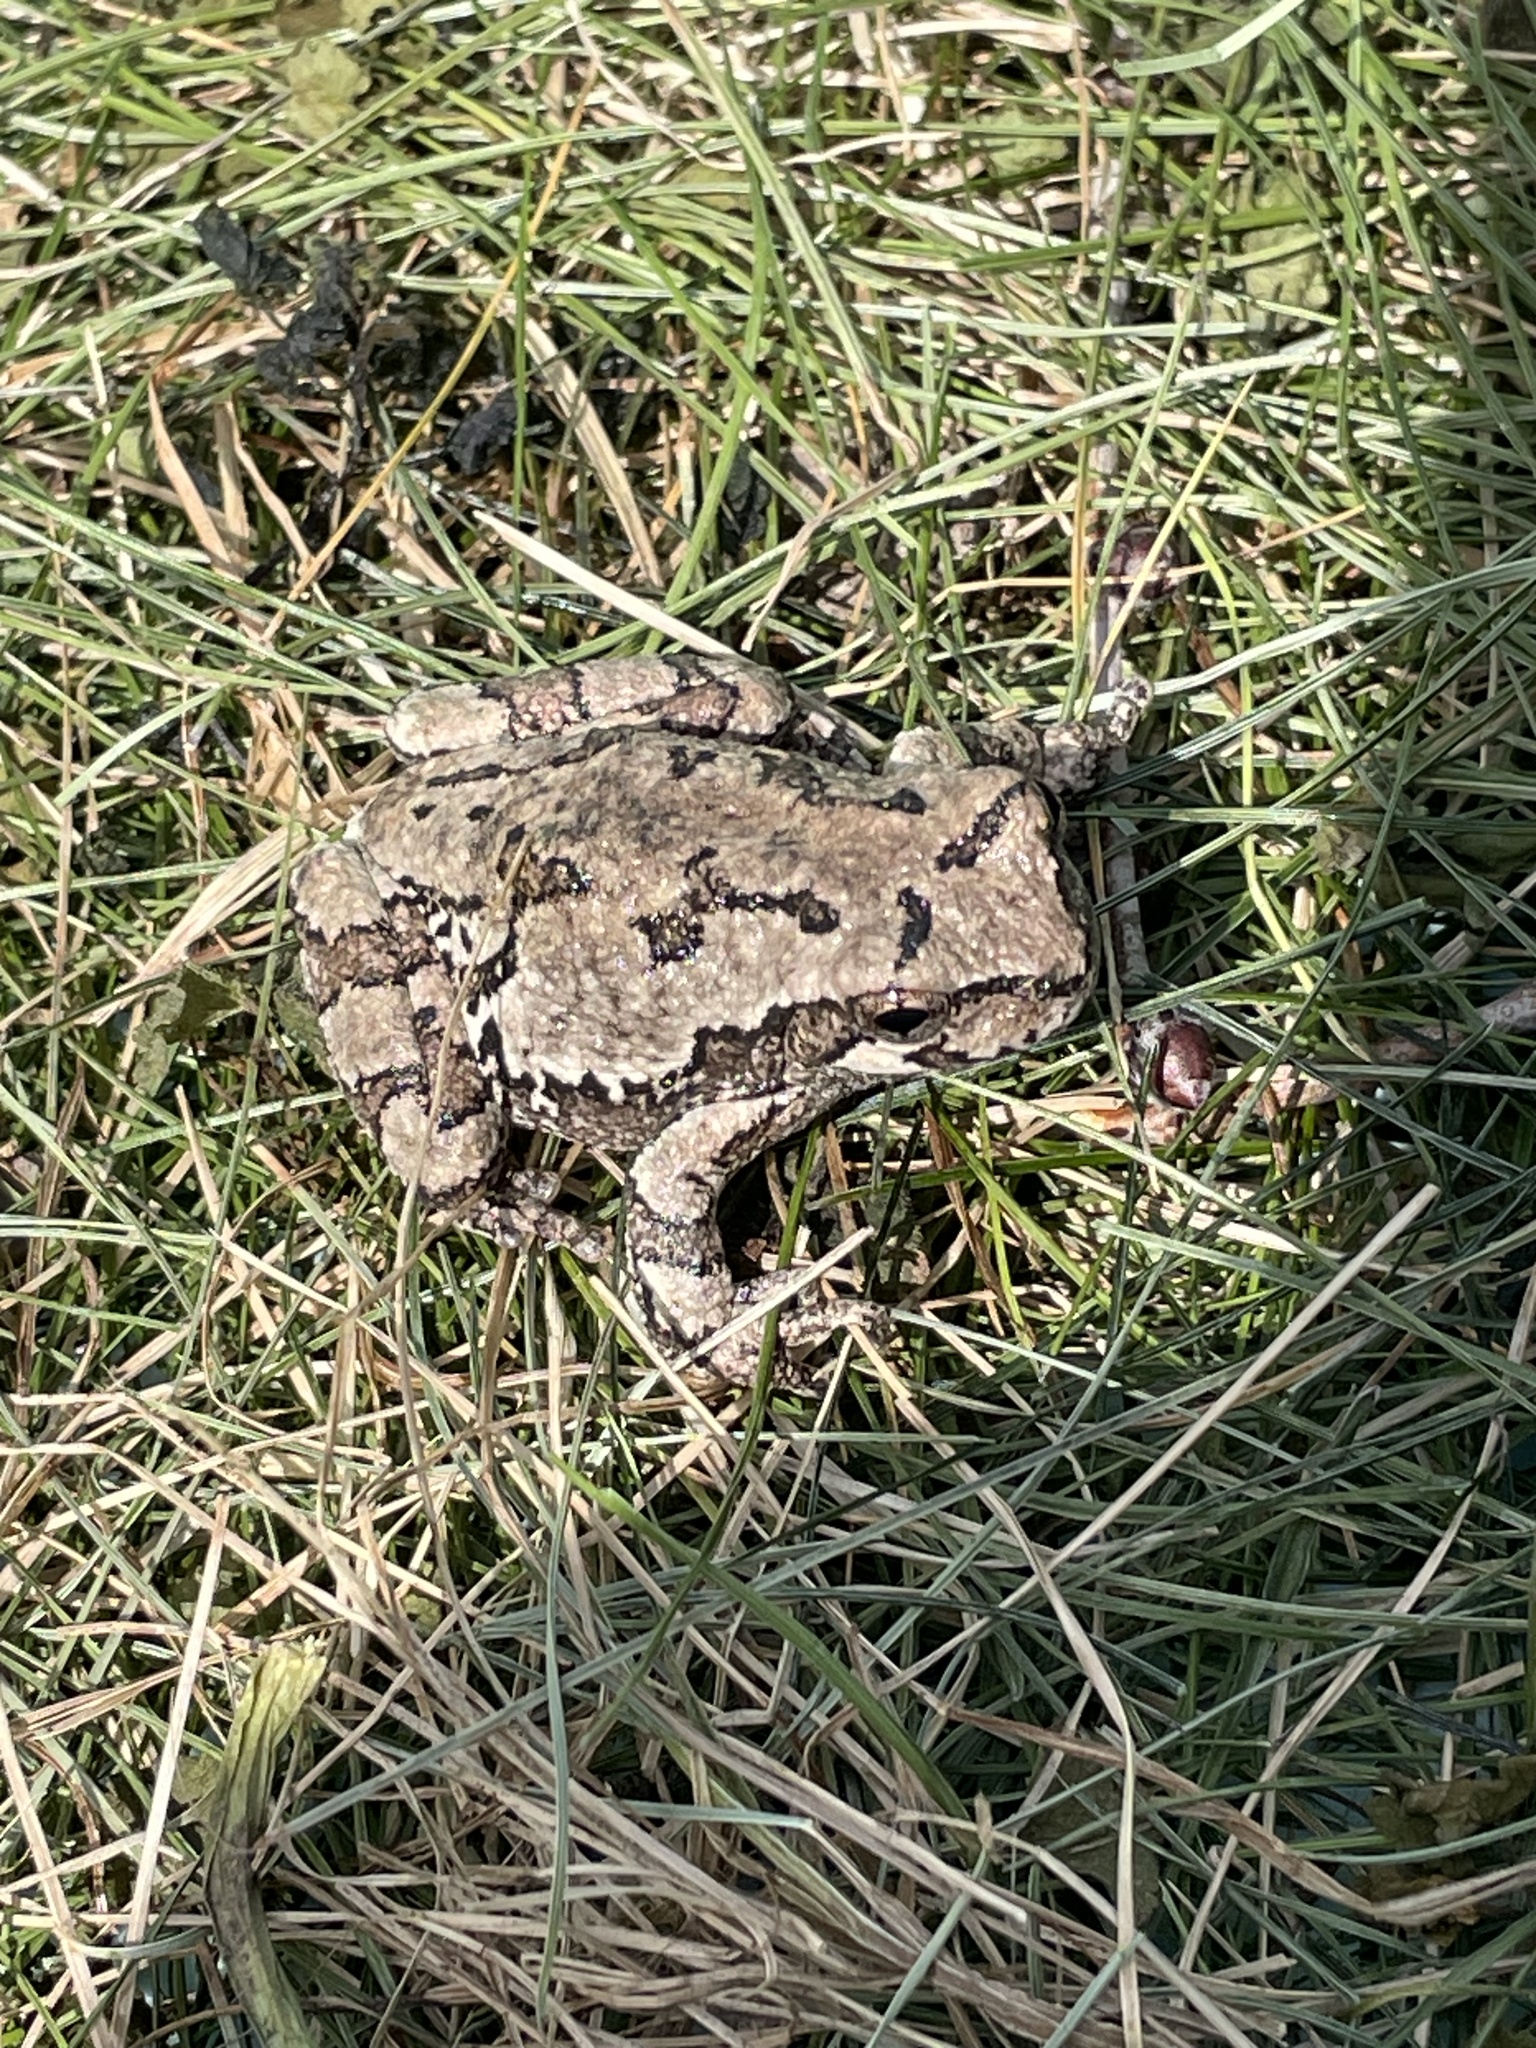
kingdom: Animalia
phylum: Chordata
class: Amphibia
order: Anura
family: Hylidae
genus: Hyla
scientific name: Hyla
